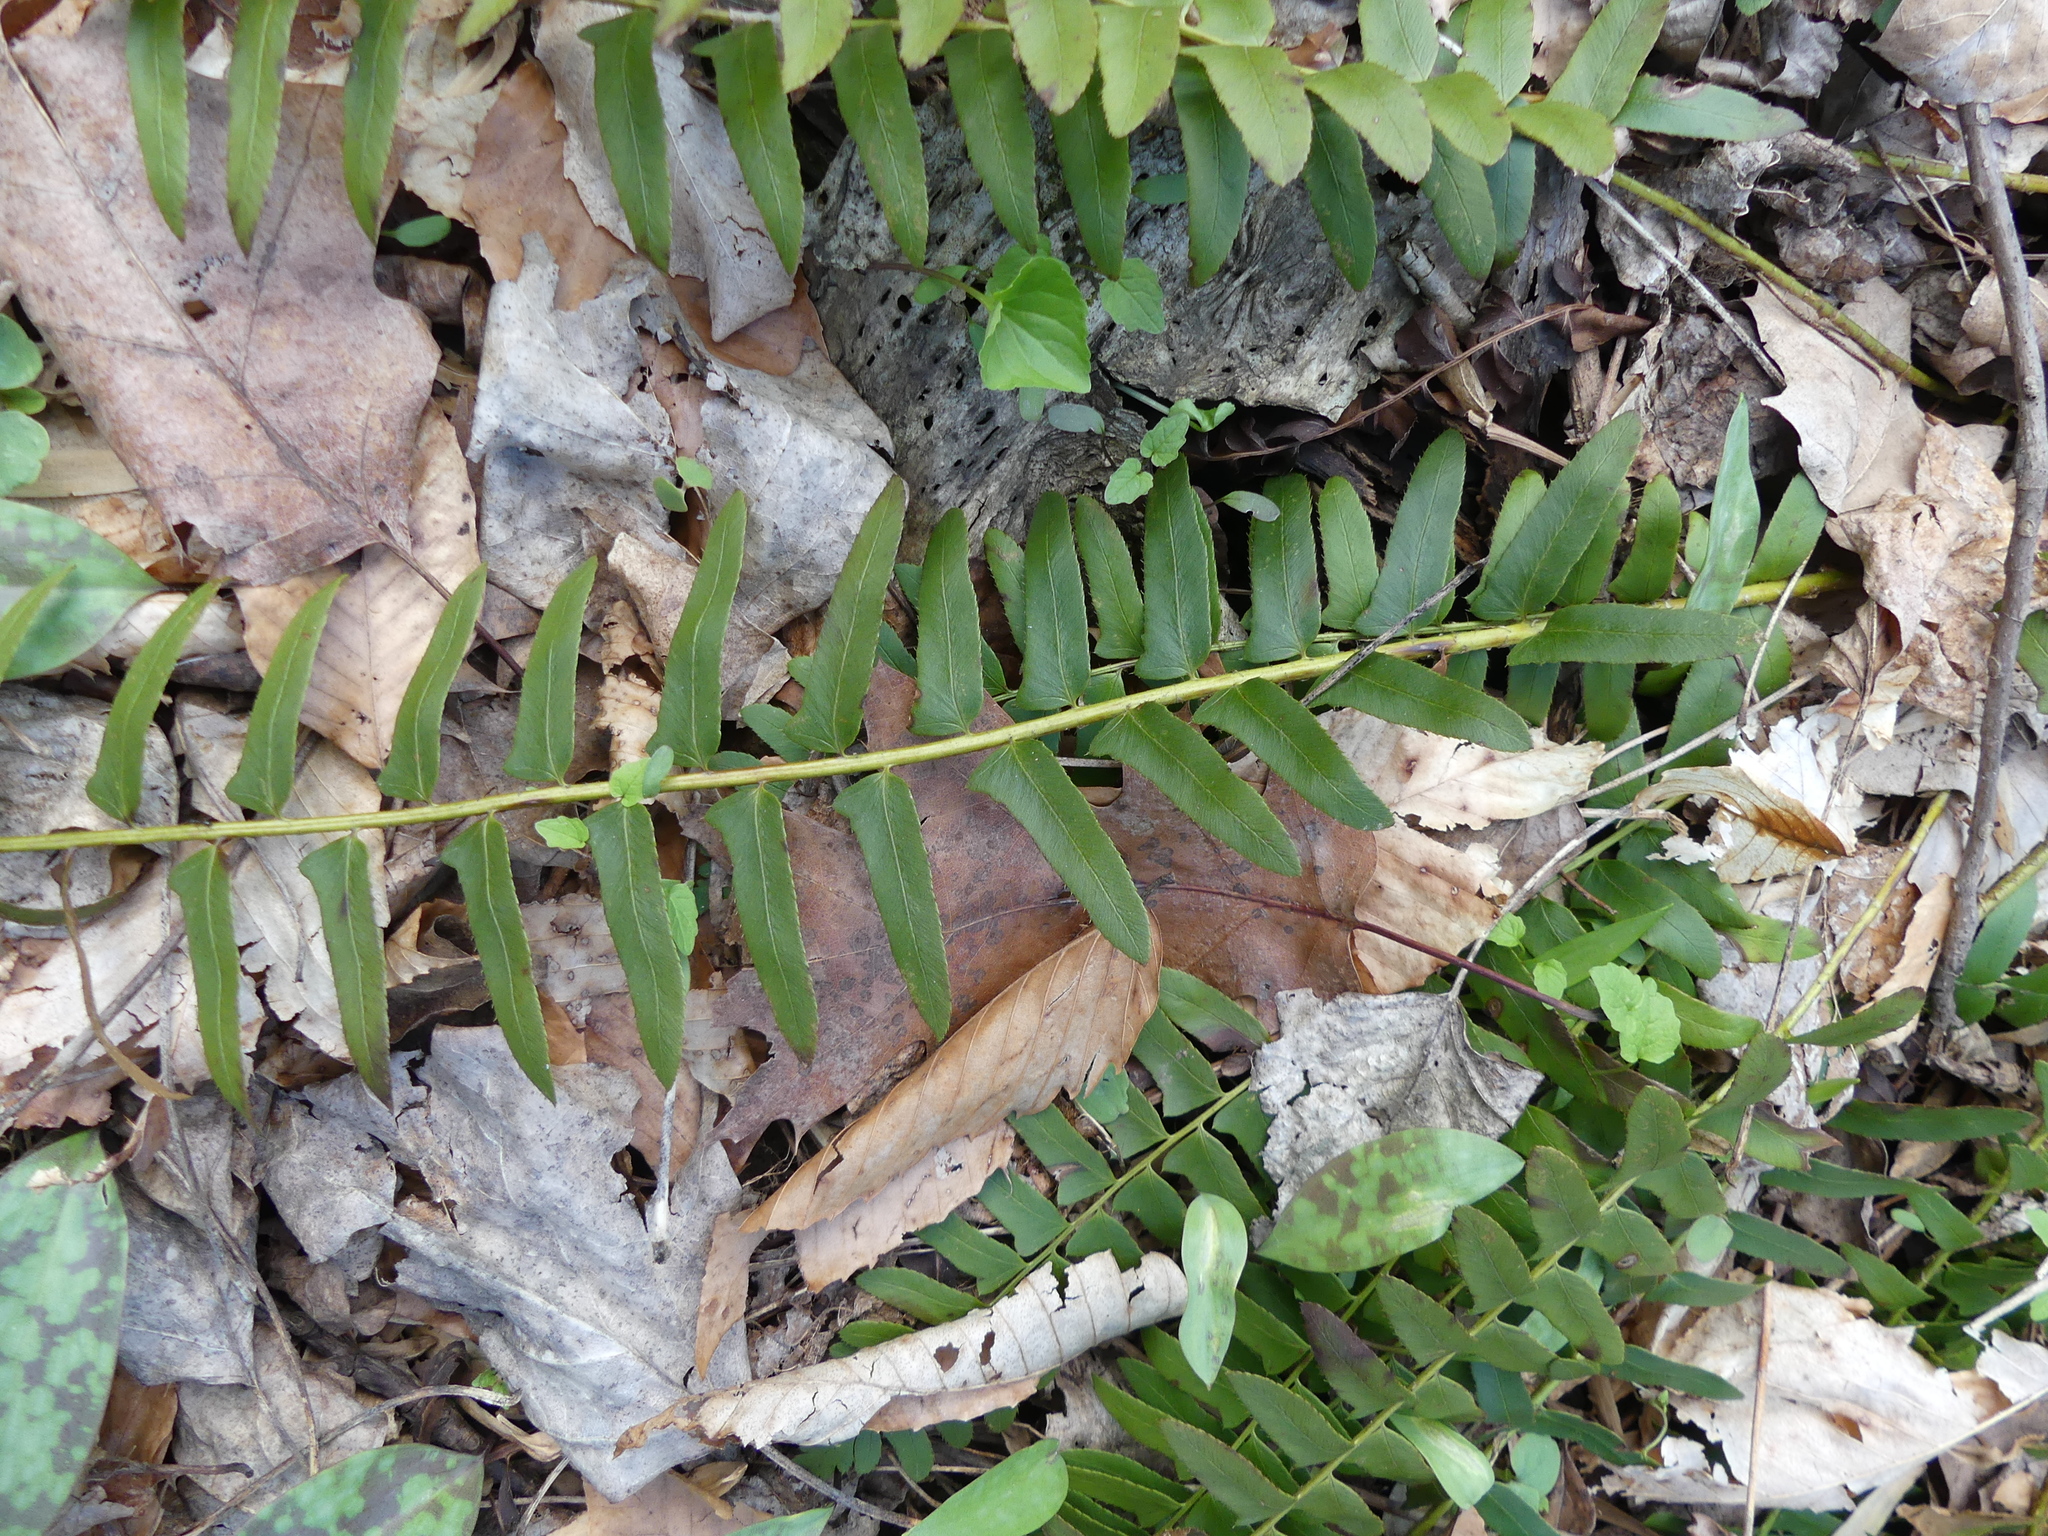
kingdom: Plantae
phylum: Tracheophyta
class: Polypodiopsida
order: Polypodiales
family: Dryopteridaceae
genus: Polystichum
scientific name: Polystichum acrostichoides
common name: Christmas fern
